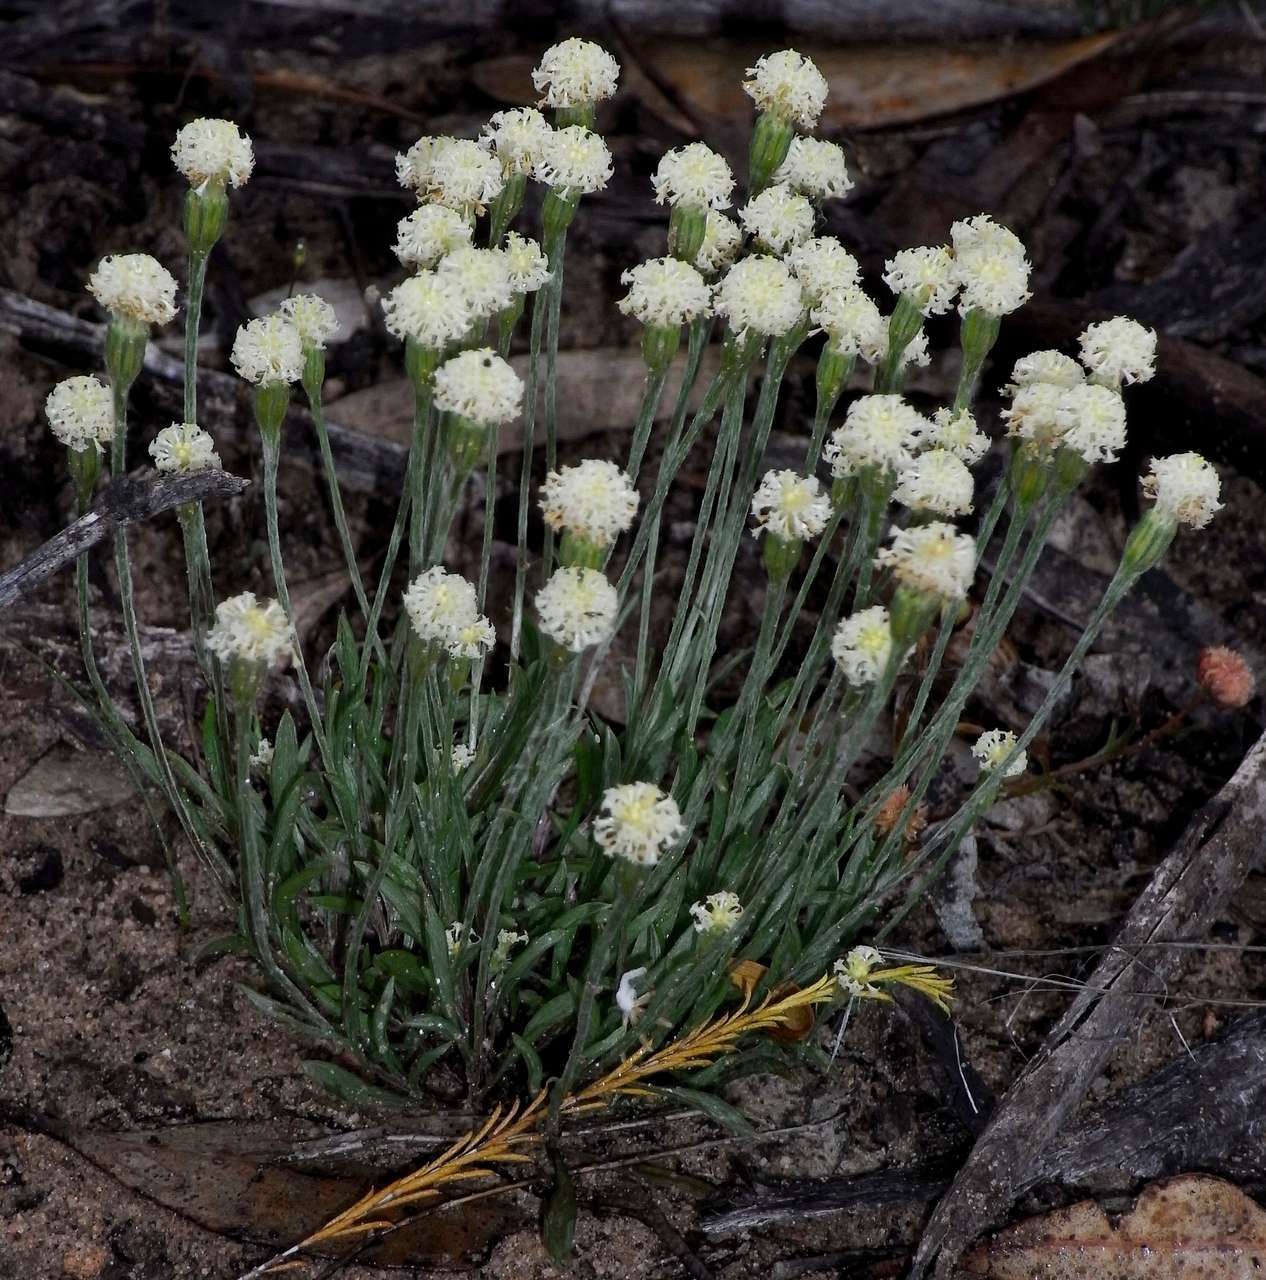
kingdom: Plantae
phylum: Tracheophyta
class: Magnoliopsida
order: Asterales
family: Asteraceae
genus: Millotia
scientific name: Millotia myosotidifolia
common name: Broad-leaved millotia
